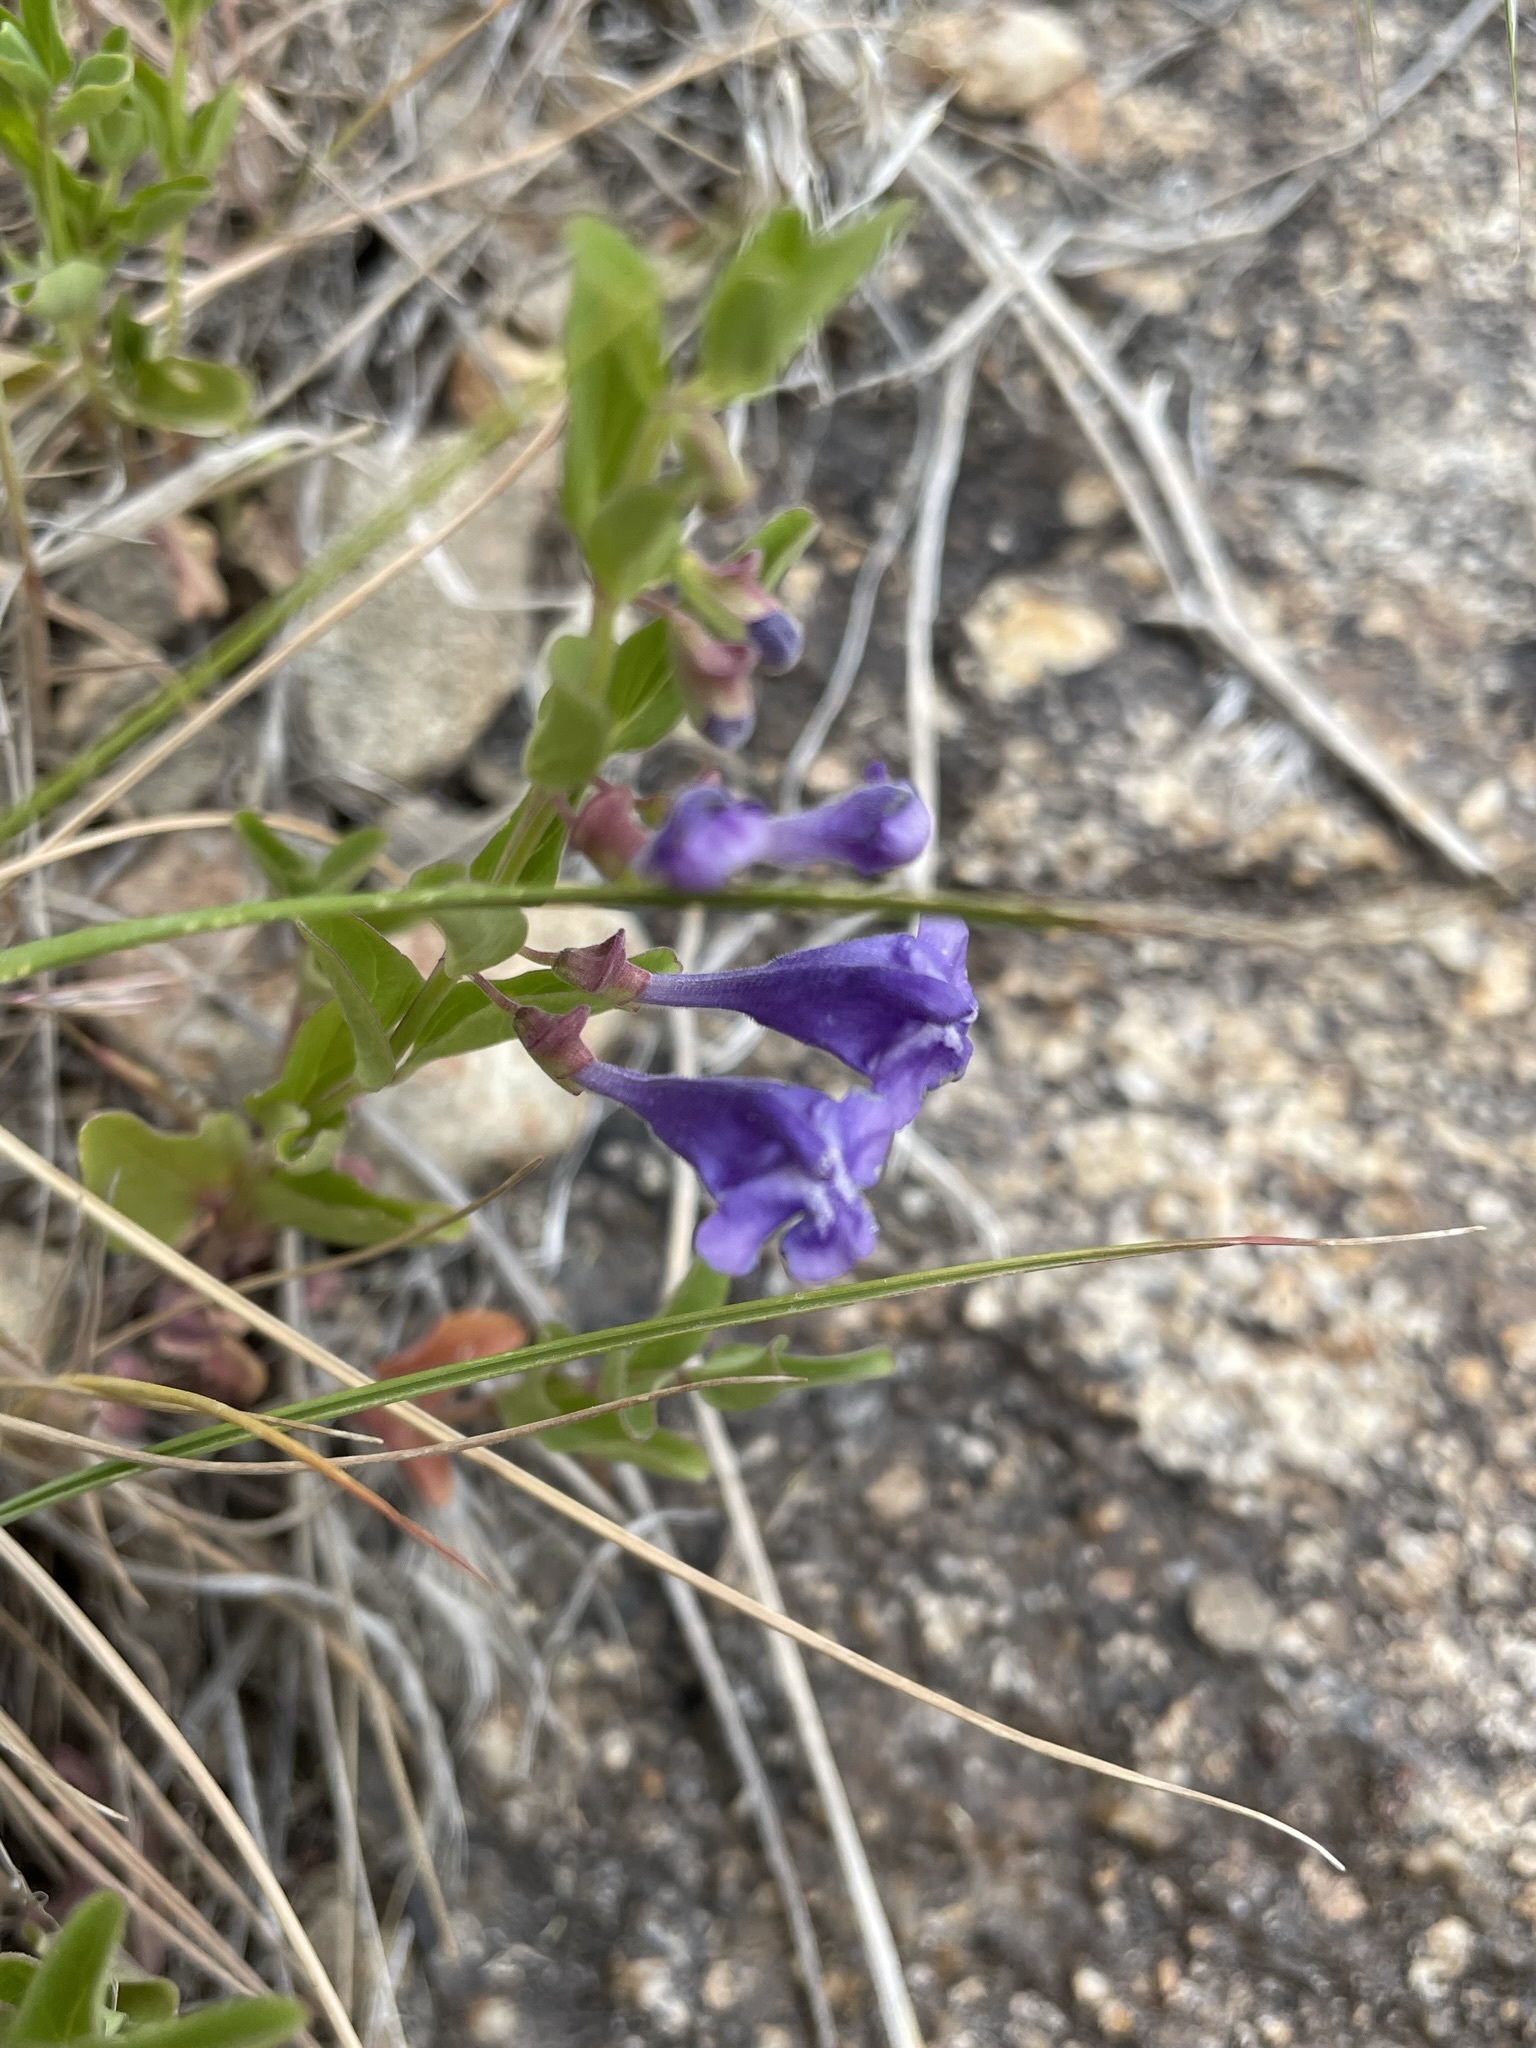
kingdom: Plantae
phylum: Tracheophyta
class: Magnoliopsida
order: Lamiales
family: Lamiaceae
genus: Scutellaria
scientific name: Scutellaria angustifolia
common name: Narrow-leaved skullcap
